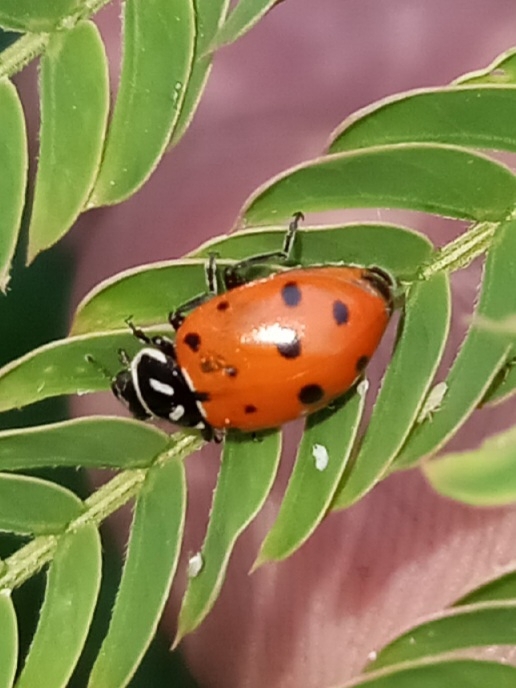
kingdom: Animalia
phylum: Arthropoda
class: Insecta
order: Coleoptera
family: Coccinellidae
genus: Hippodamia
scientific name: Hippodamia convergens
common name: Convergent lady beetle
